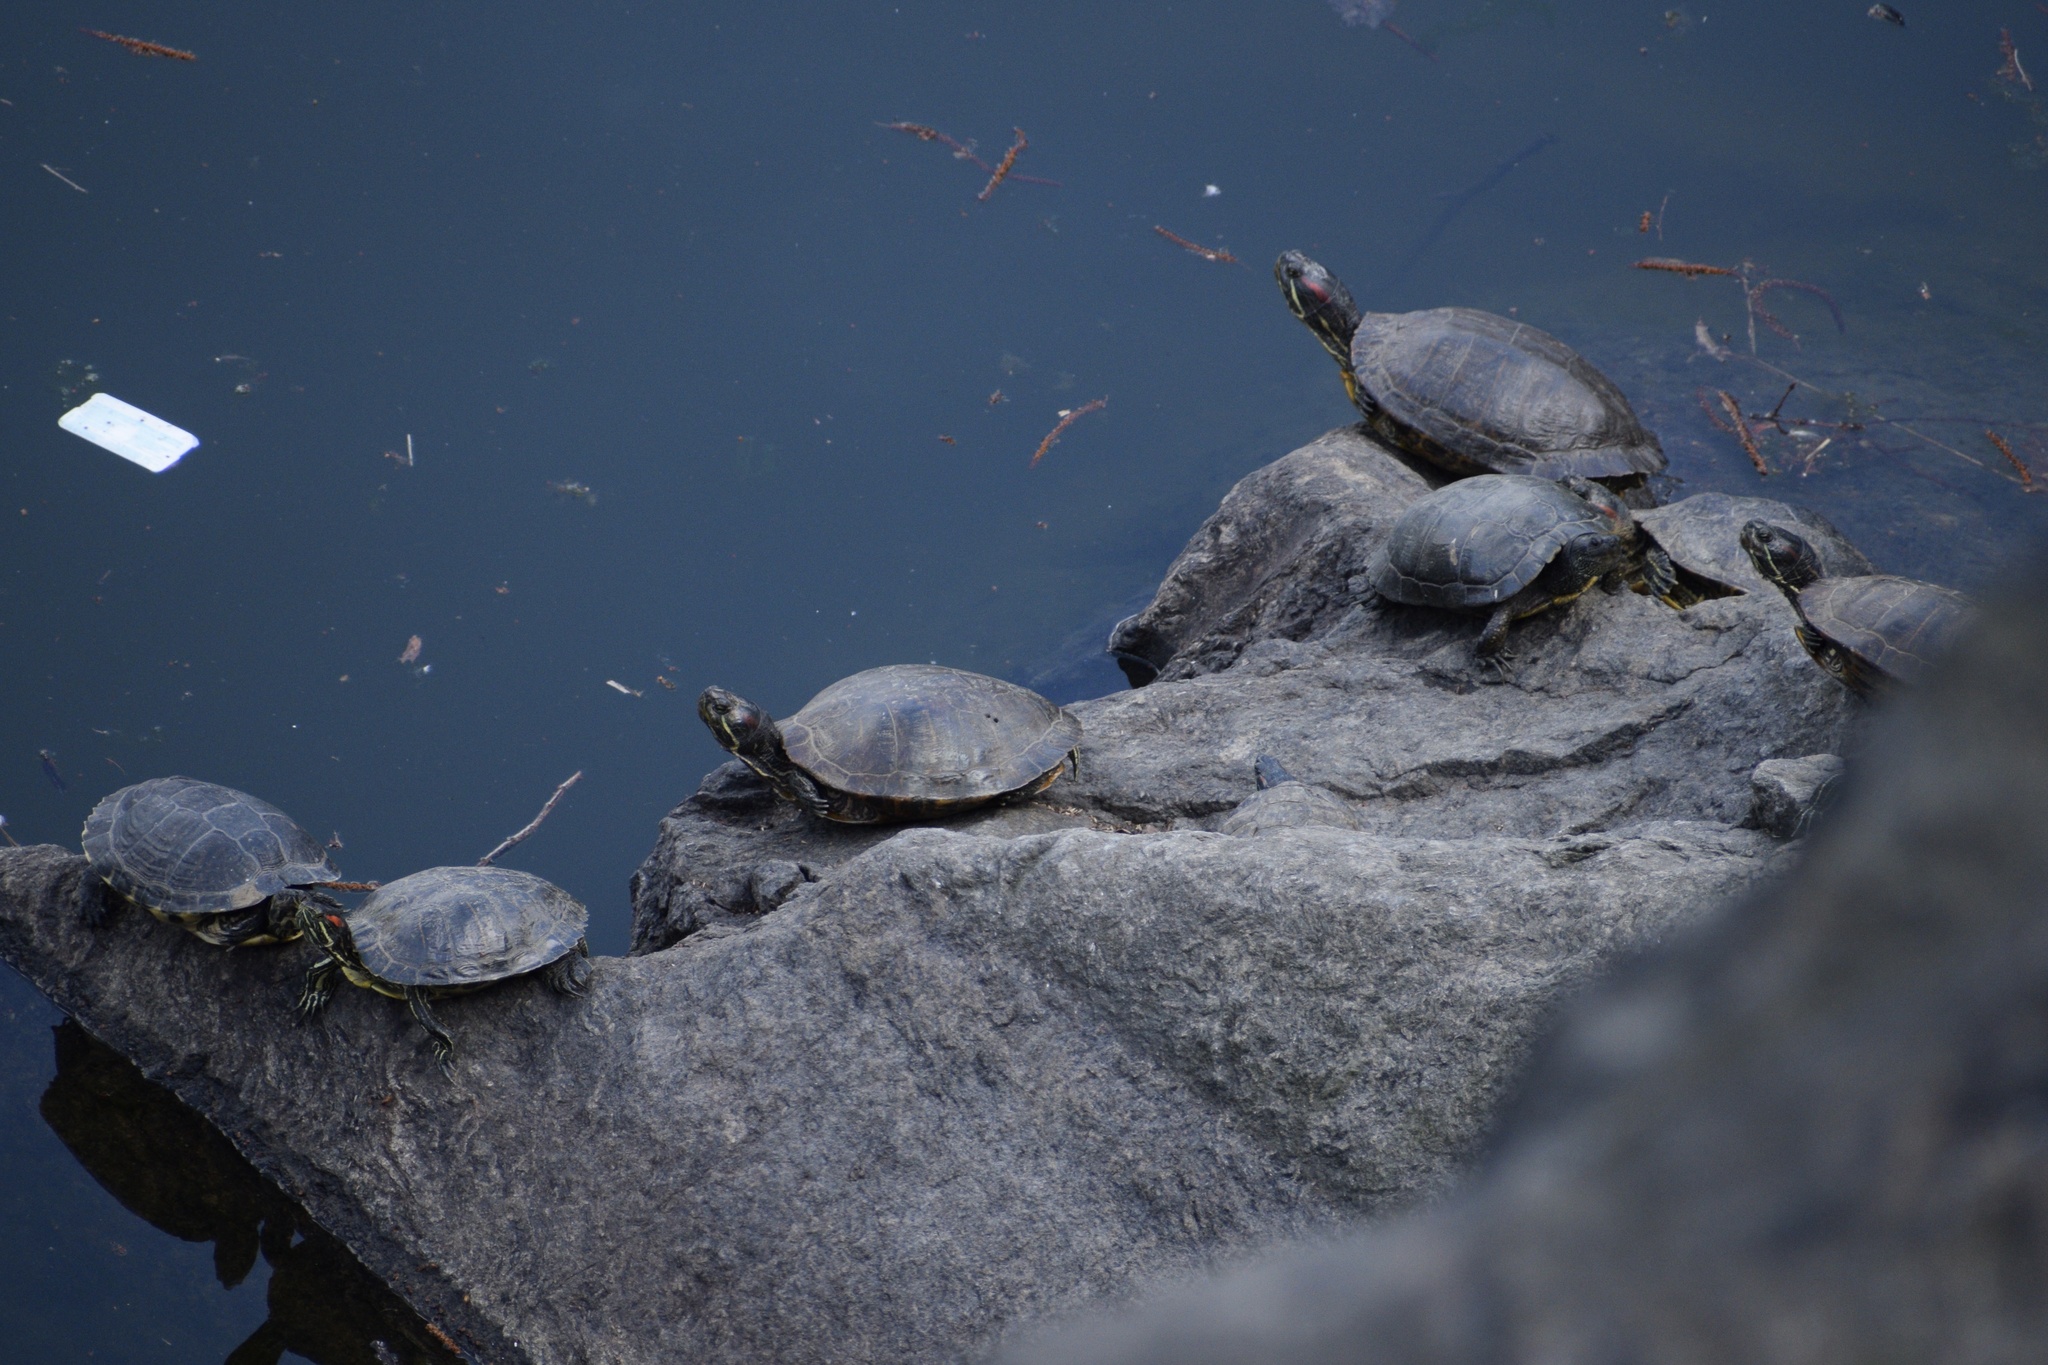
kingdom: Animalia
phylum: Chordata
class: Testudines
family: Emydidae
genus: Trachemys
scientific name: Trachemys scripta
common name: Slider
